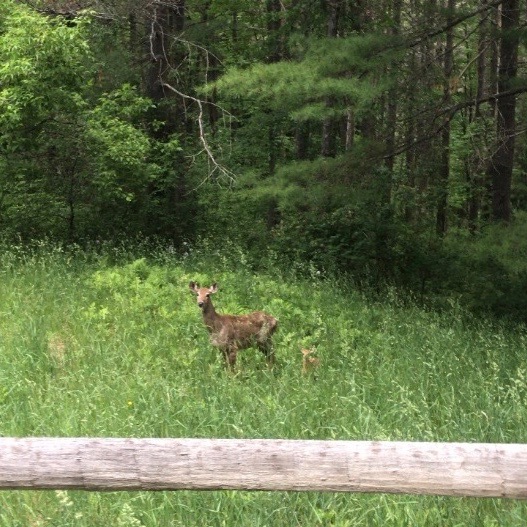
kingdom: Animalia
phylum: Chordata
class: Mammalia
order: Artiodactyla
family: Cervidae
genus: Odocoileus
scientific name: Odocoileus virginianus
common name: White-tailed deer
